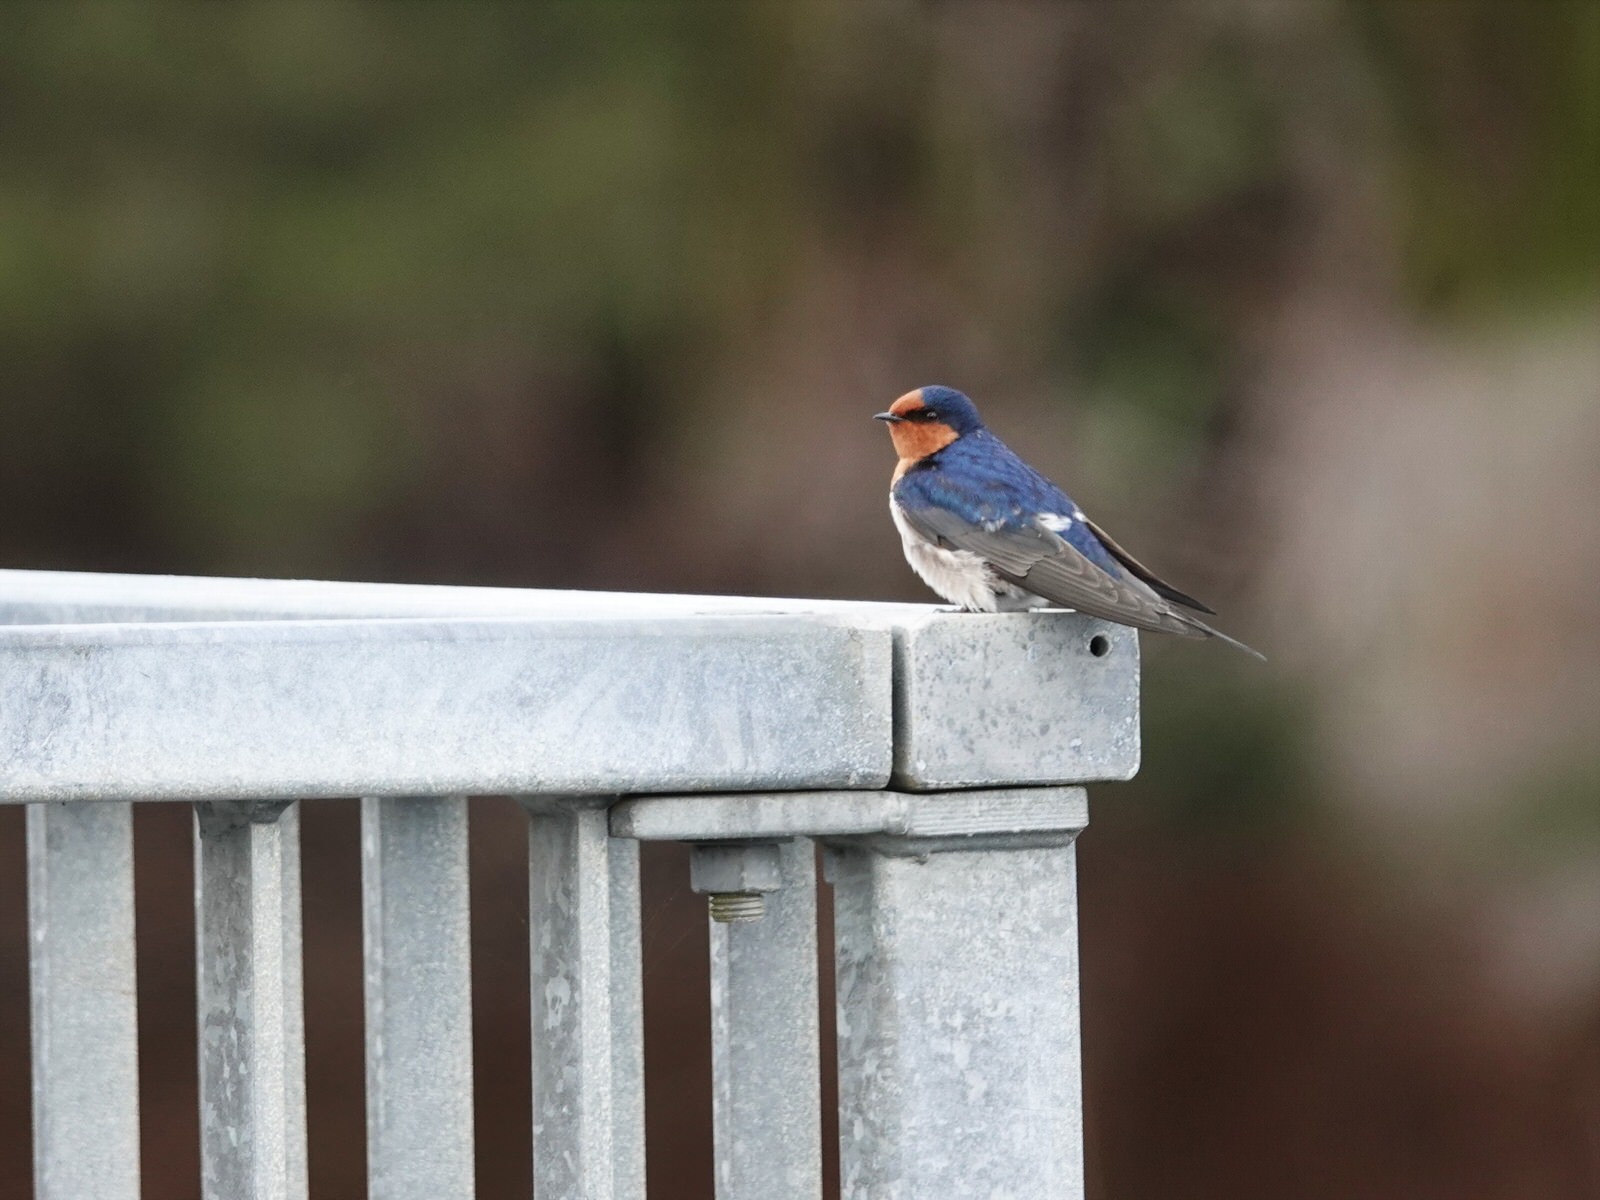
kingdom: Animalia
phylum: Chordata
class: Aves
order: Passeriformes
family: Hirundinidae
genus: Hirundo
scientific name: Hirundo neoxena
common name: Welcome swallow
